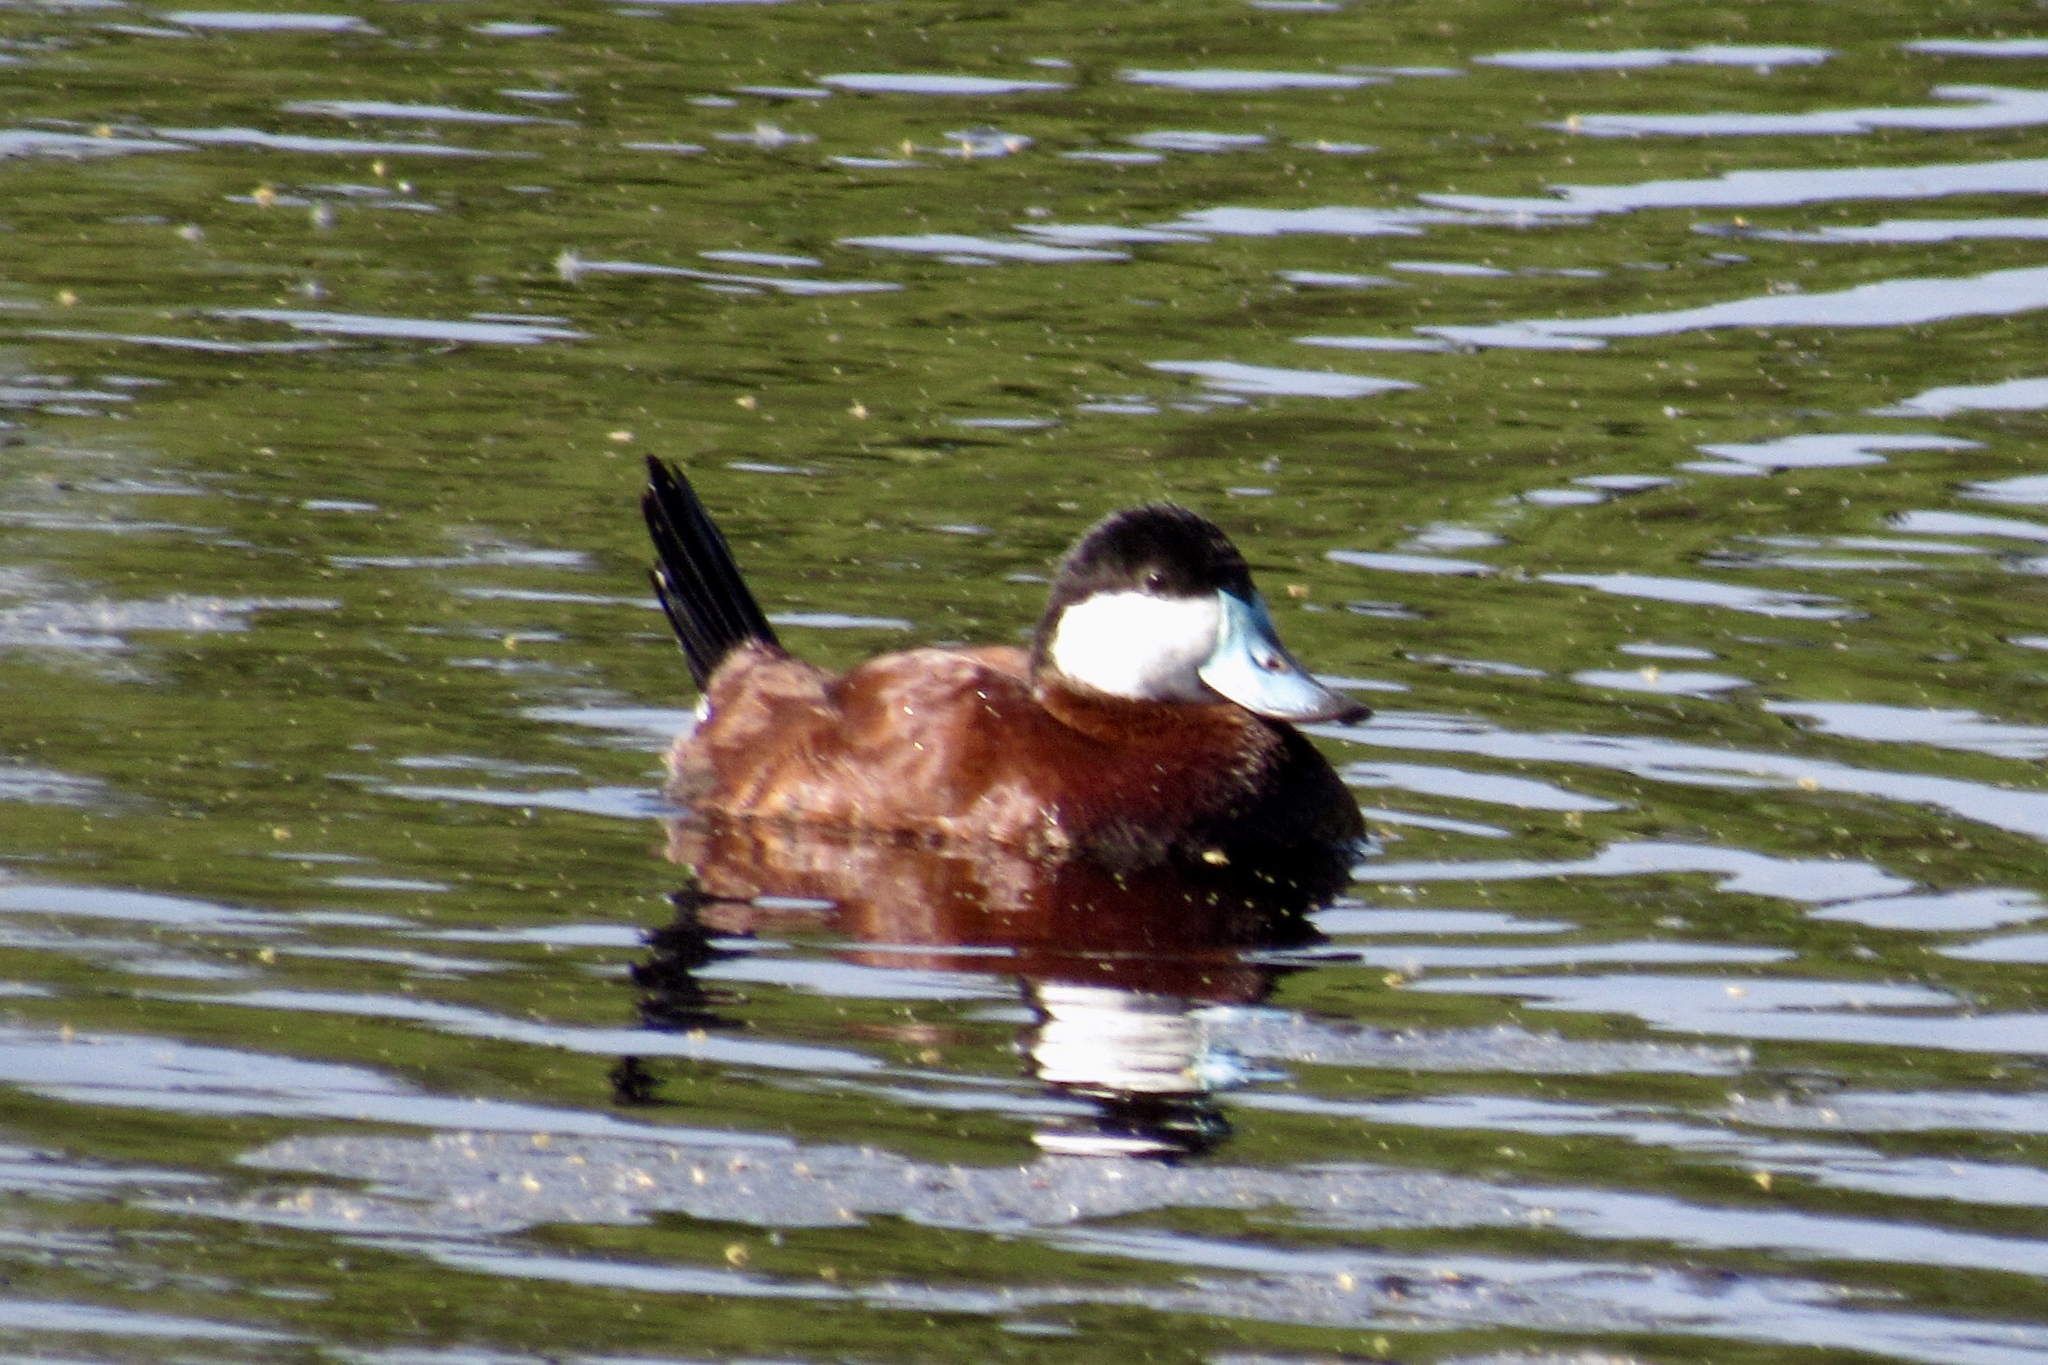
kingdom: Animalia
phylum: Chordata
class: Aves
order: Anseriformes
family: Anatidae
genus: Oxyura
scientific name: Oxyura jamaicensis
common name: Ruddy duck
